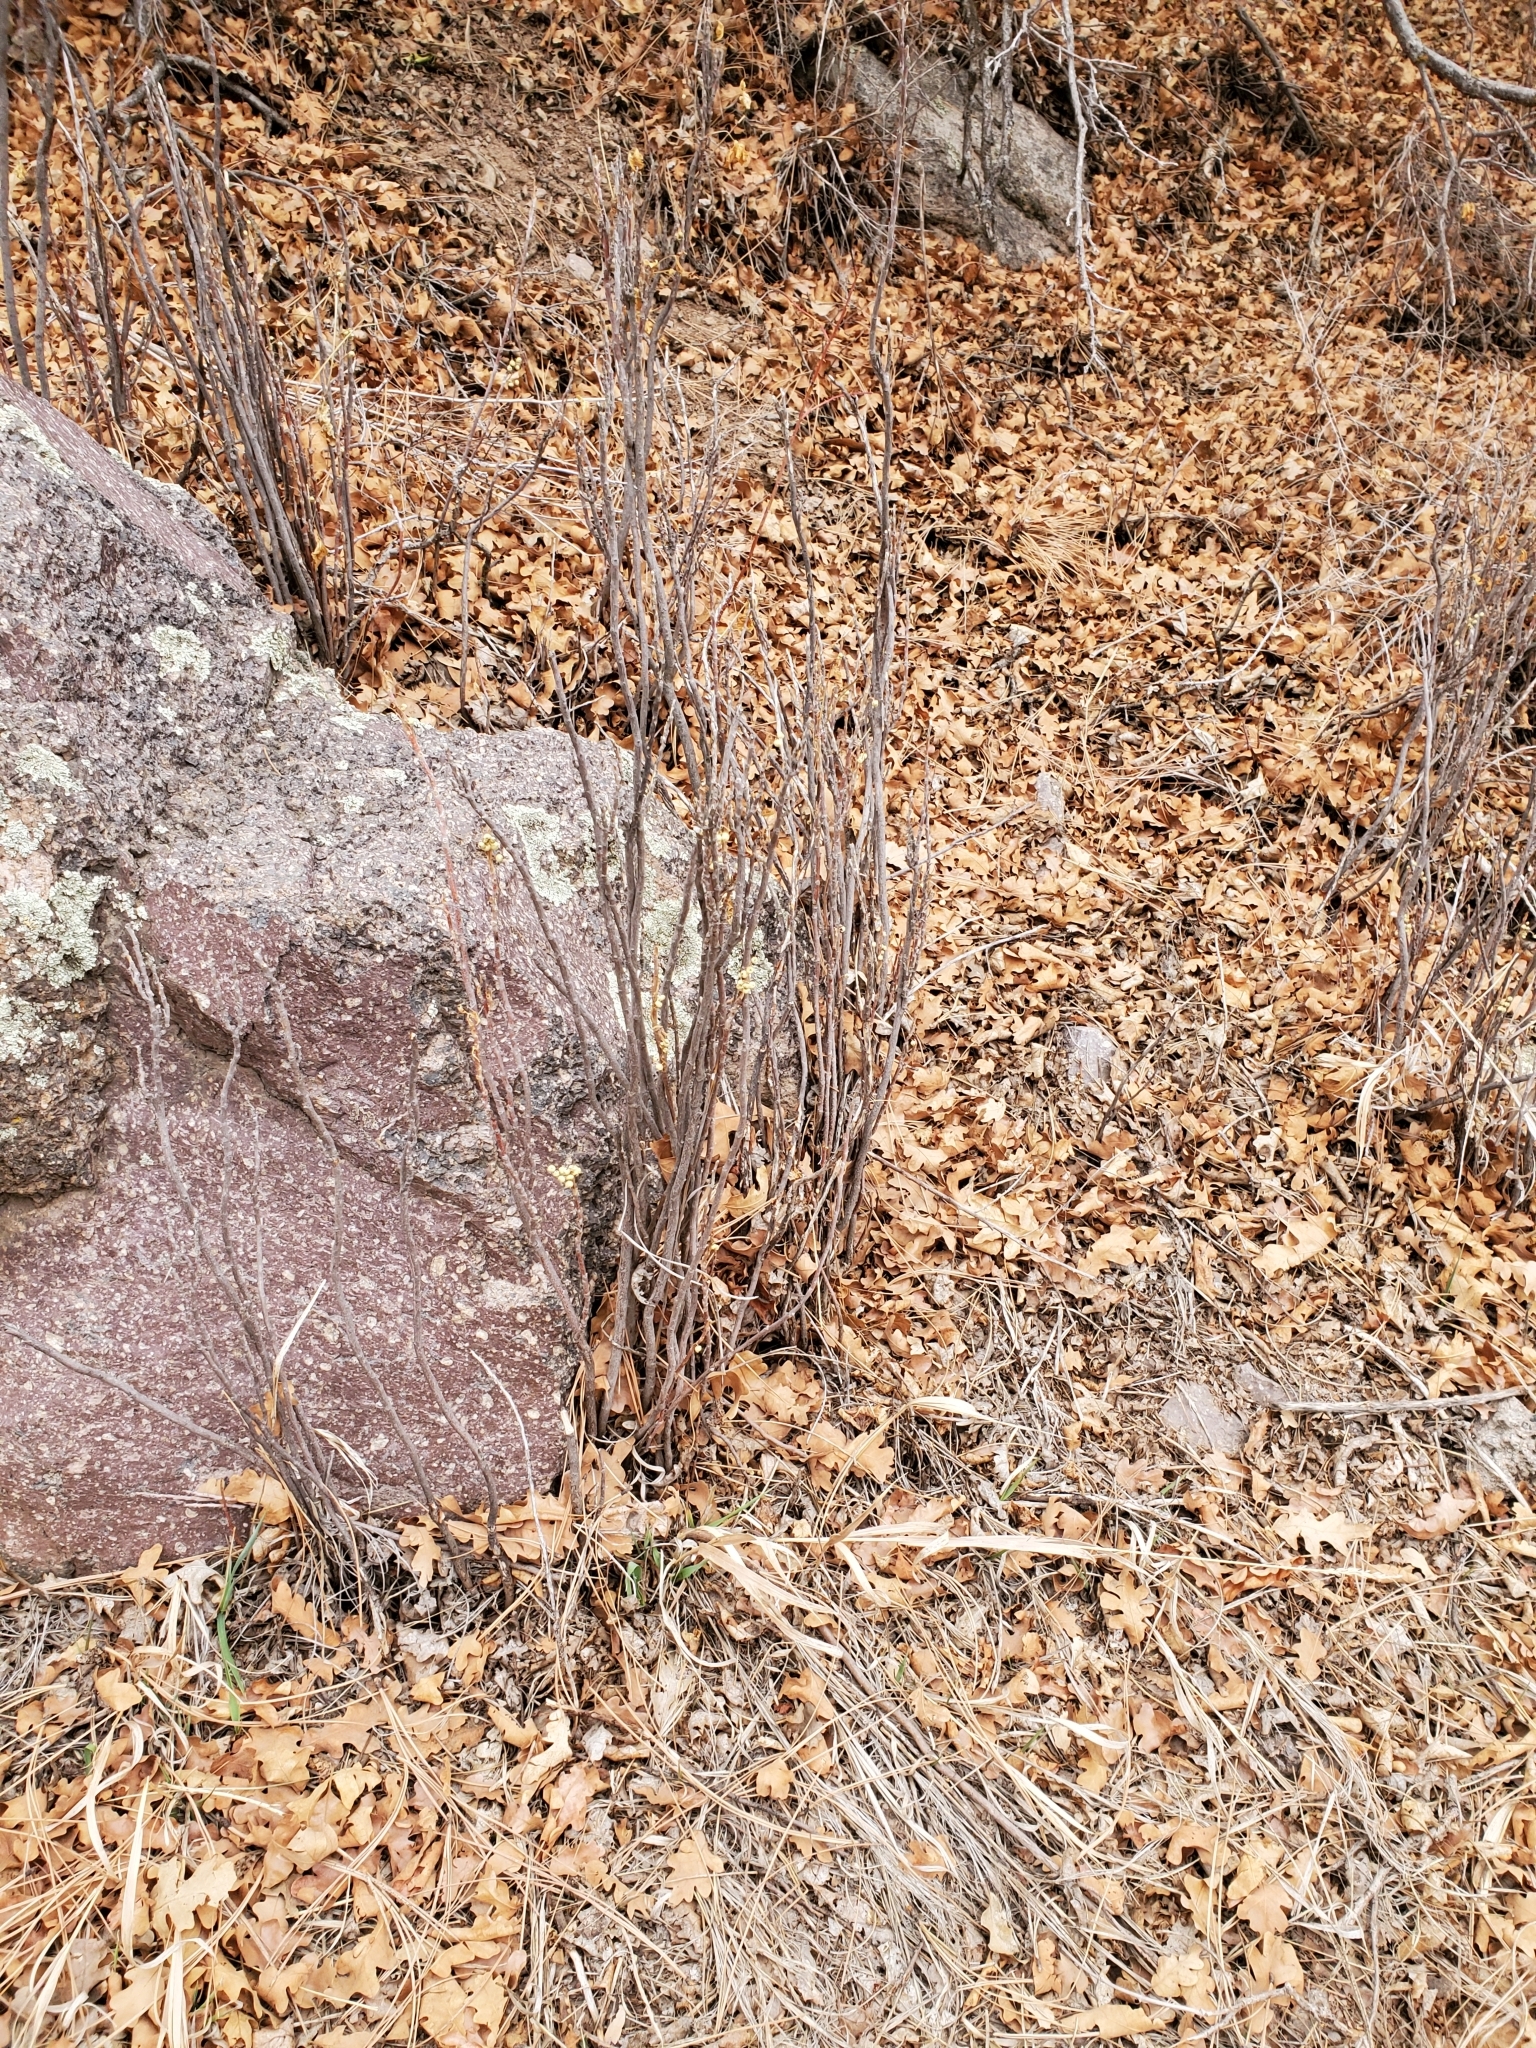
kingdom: Plantae
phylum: Tracheophyta
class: Magnoliopsida
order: Sapindales
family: Anacardiaceae
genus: Toxicodendron
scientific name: Toxicodendron rydbergii
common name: Rydberg's poison-ivy
